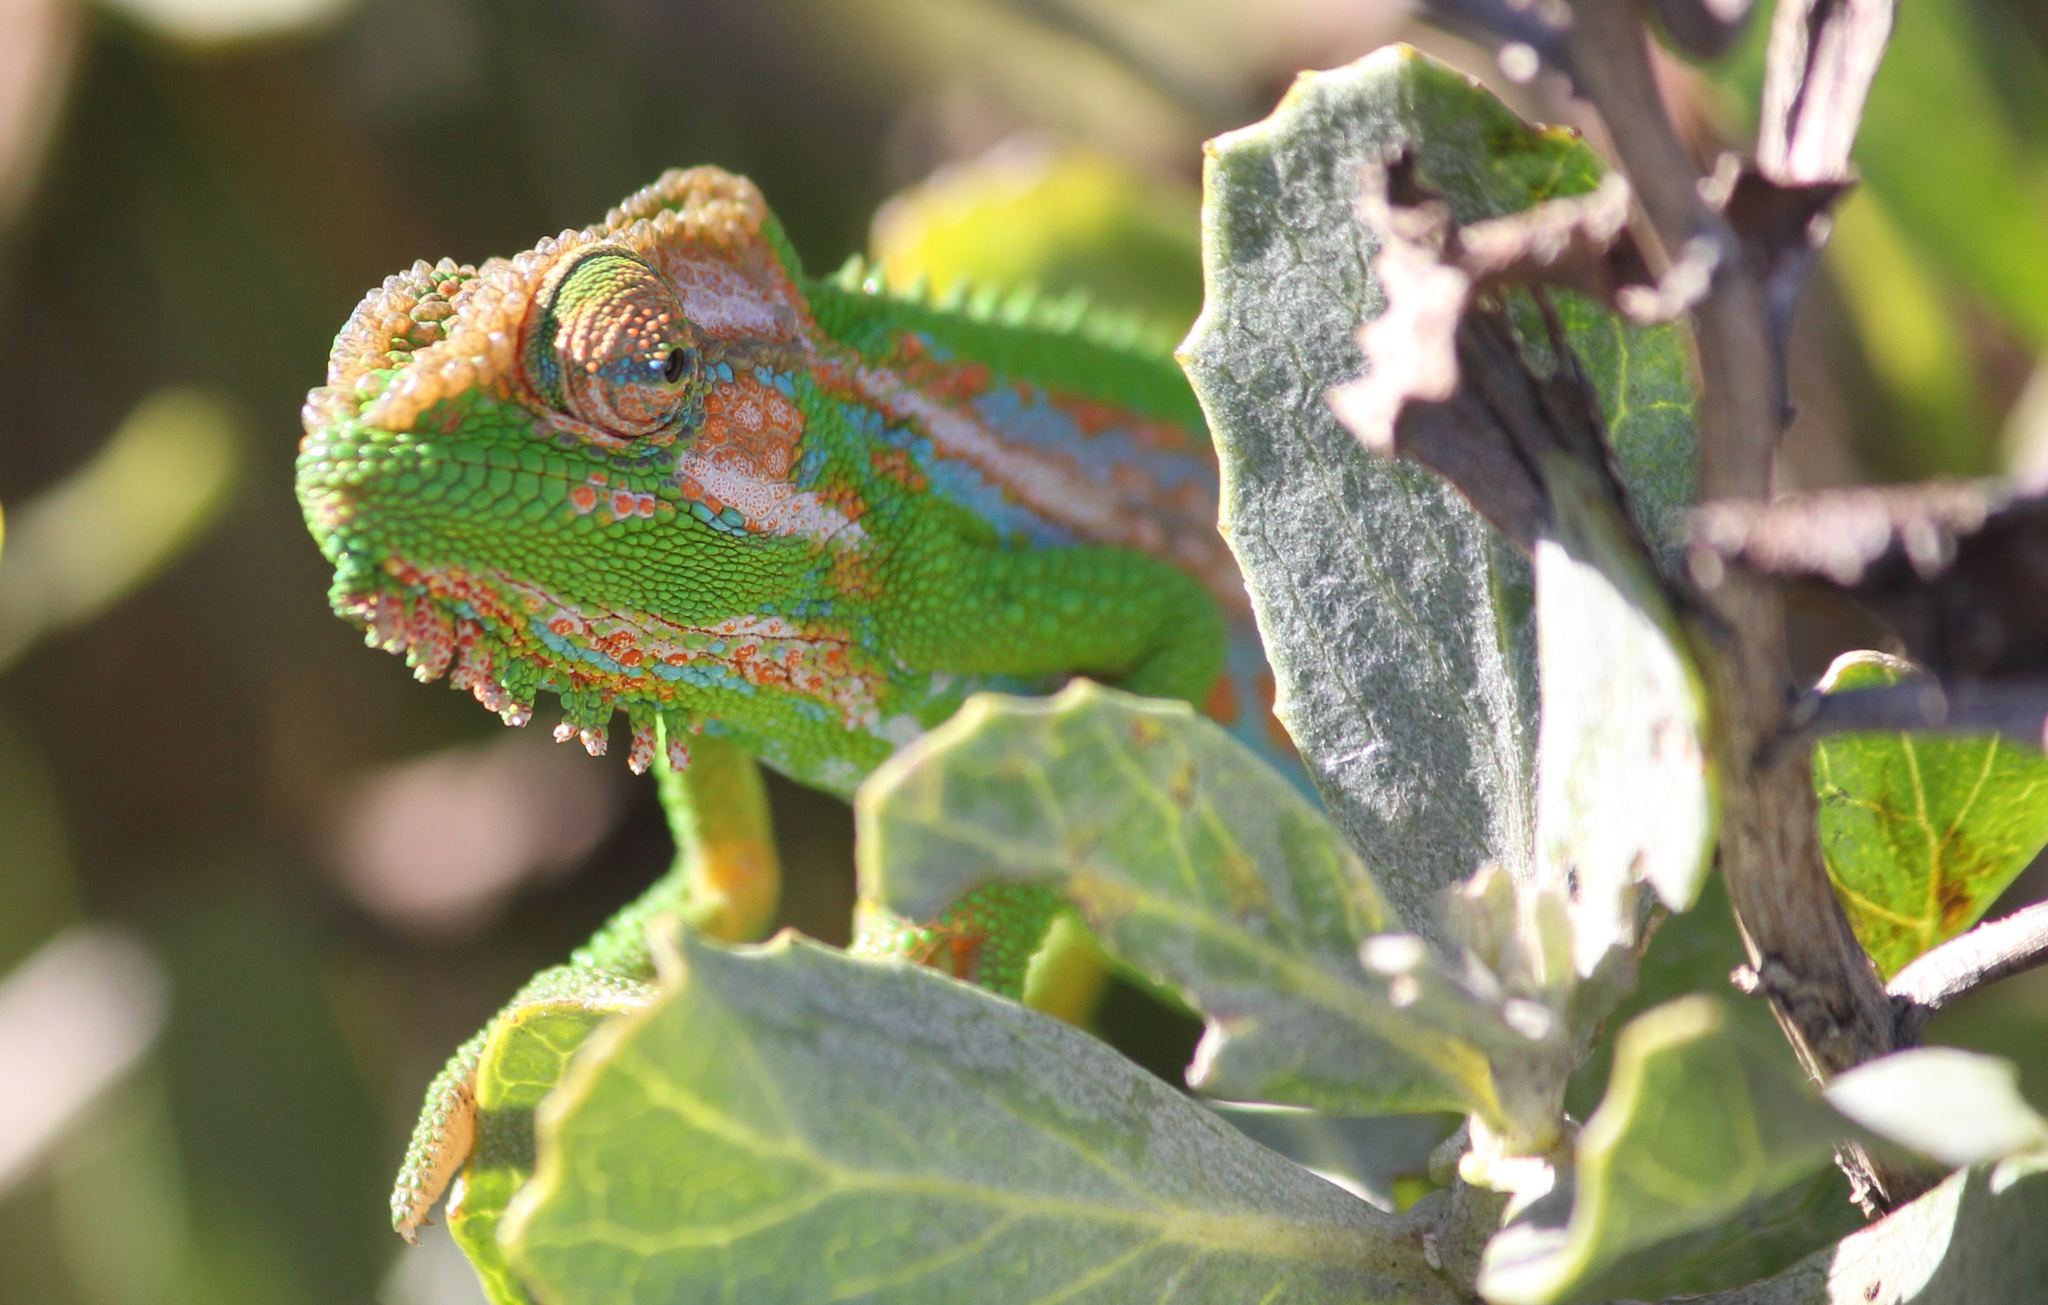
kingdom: Animalia
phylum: Chordata
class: Squamata
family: Chamaeleonidae
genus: Bradypodion
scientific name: Bradypodion pumilum
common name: Cape dwarf chameleon
